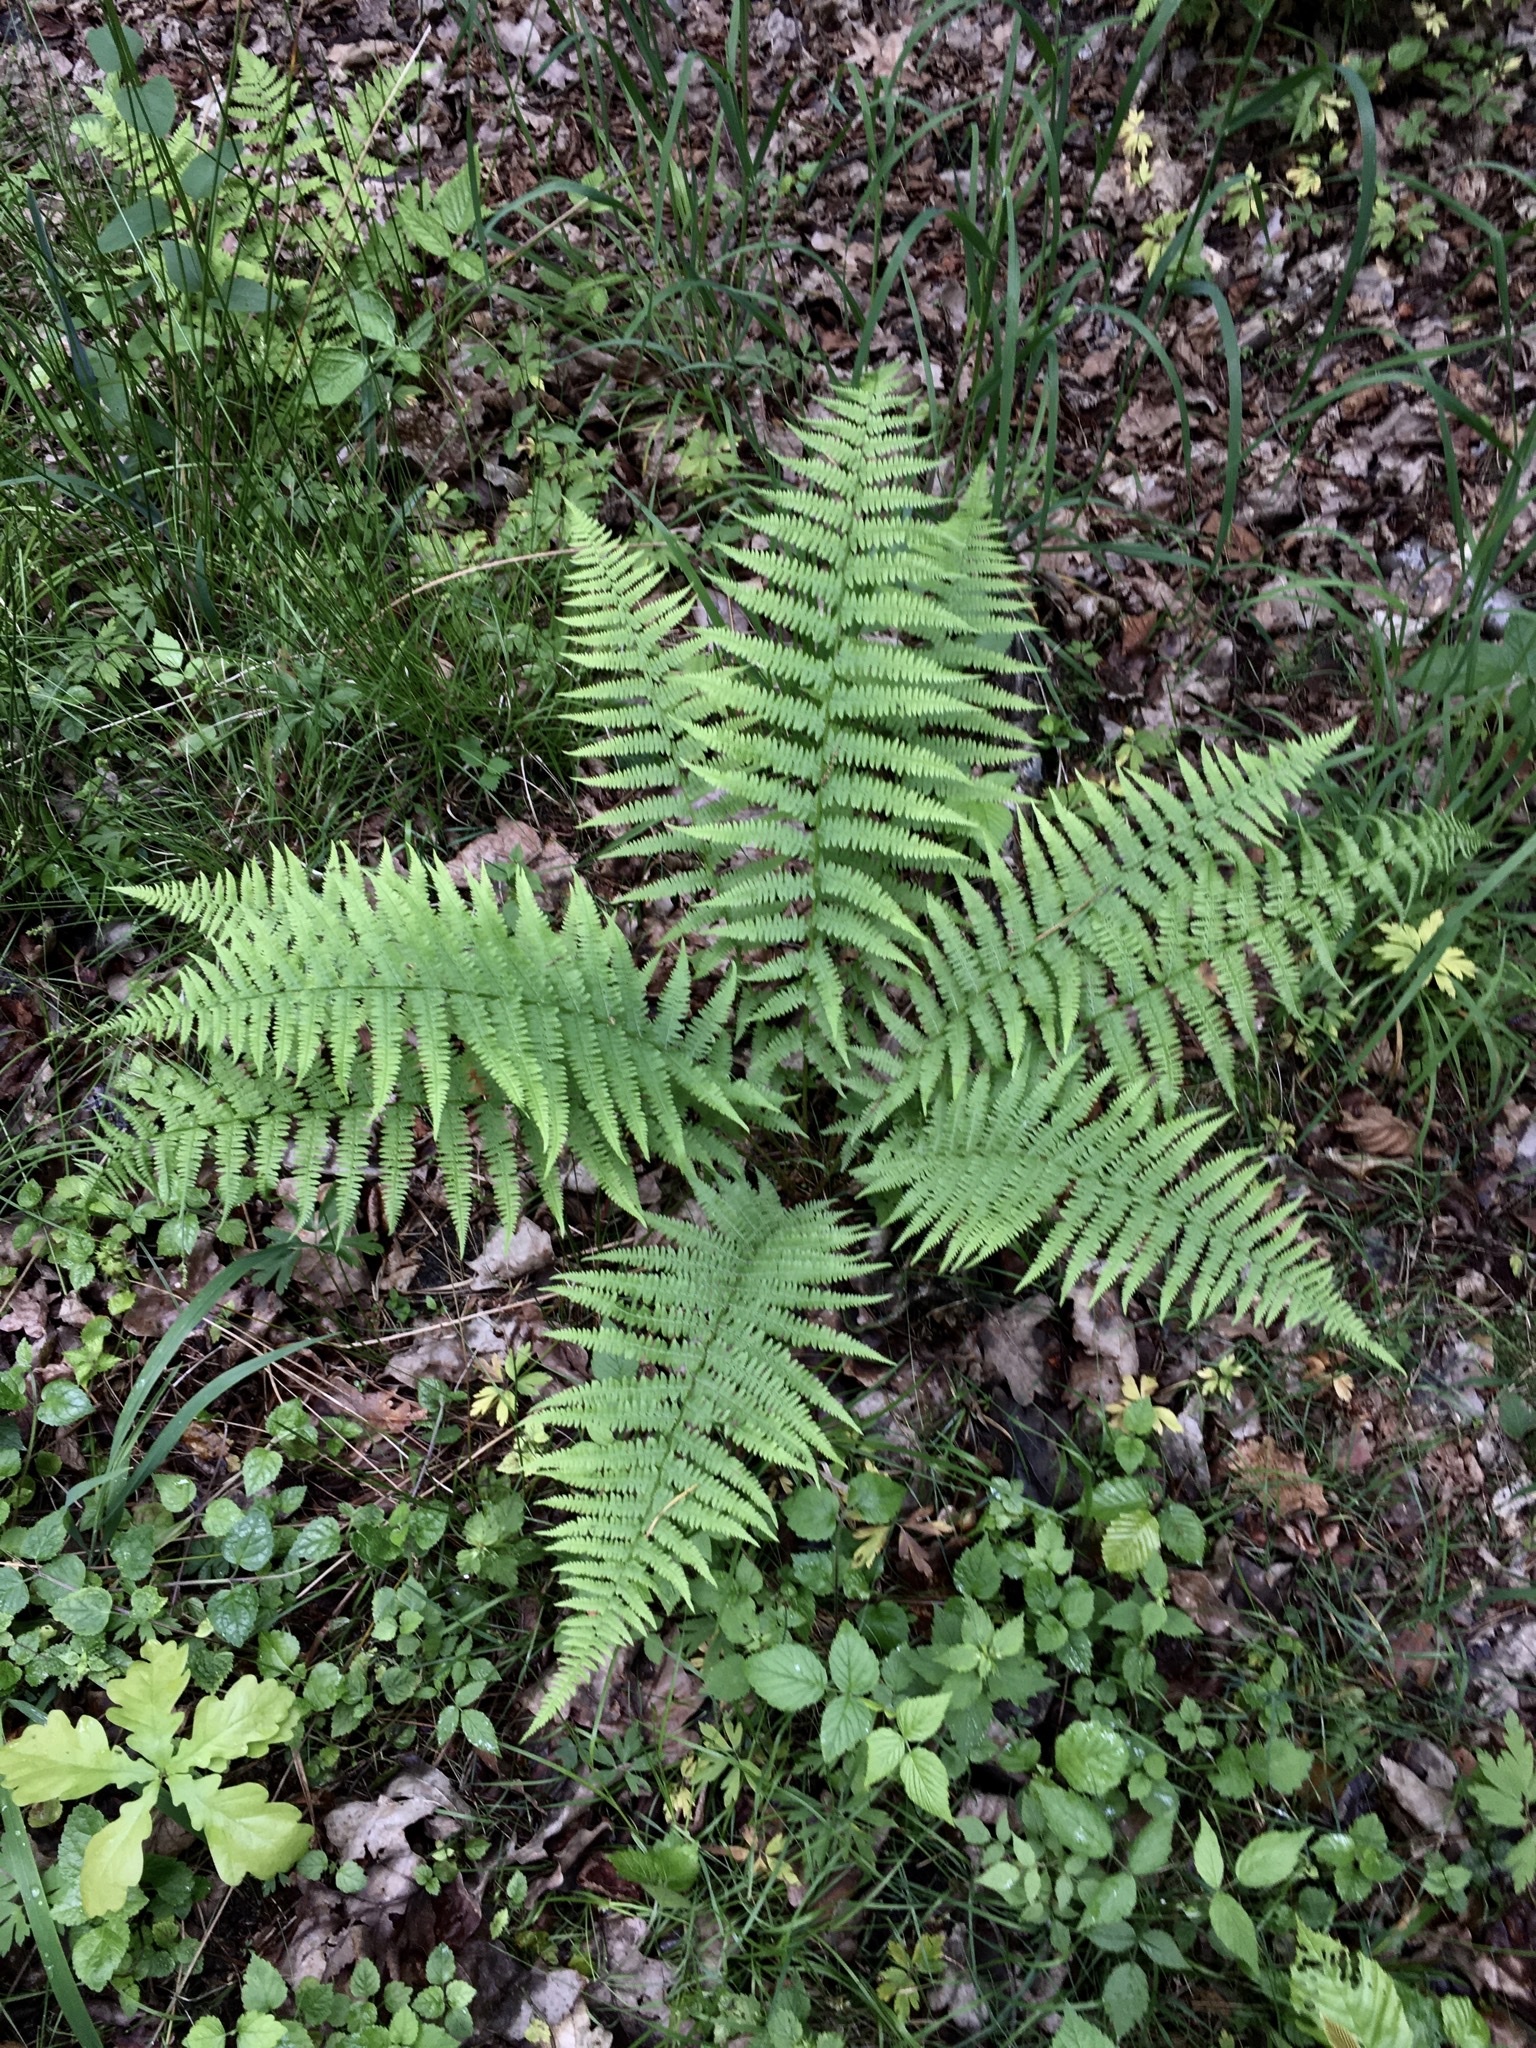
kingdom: Plantae
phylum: Tracheophyta
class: Polypodiopsida
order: Polypodiales
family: Athyriaceae
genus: Athyrium
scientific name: Athyrium filix-femina
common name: Lady fern
